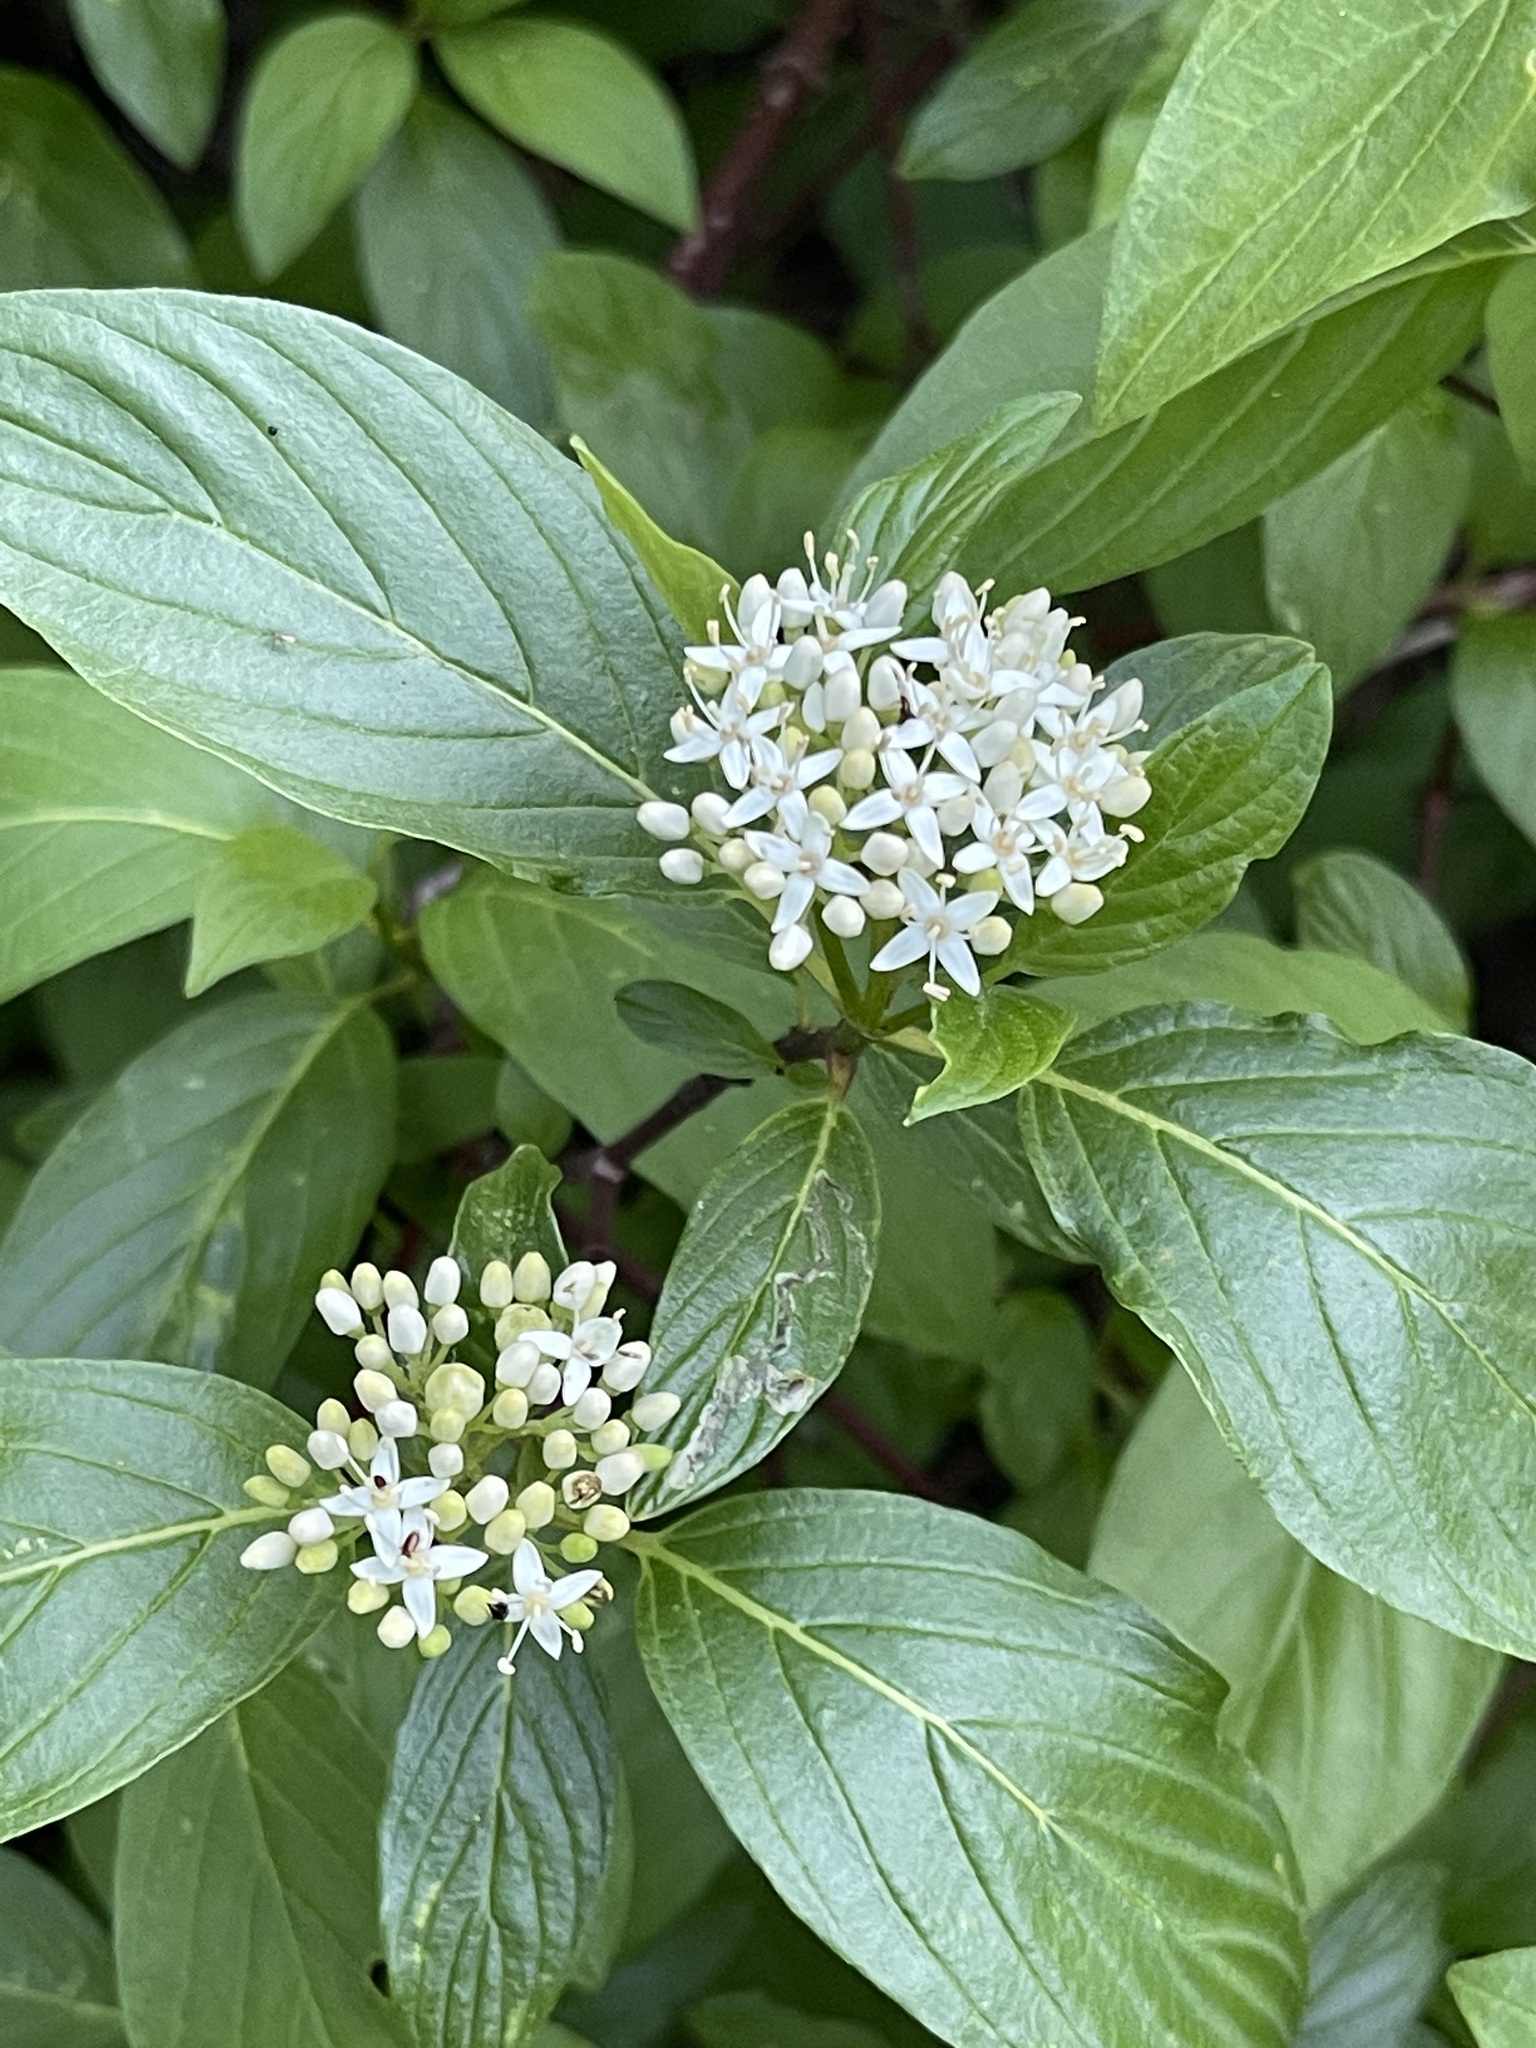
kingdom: Plantae
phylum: Tracheophyta
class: Magnoliopsida
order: Cornales
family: Cornaceae
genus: Cornus
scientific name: Cornus sericea
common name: Red-osier dogwood
